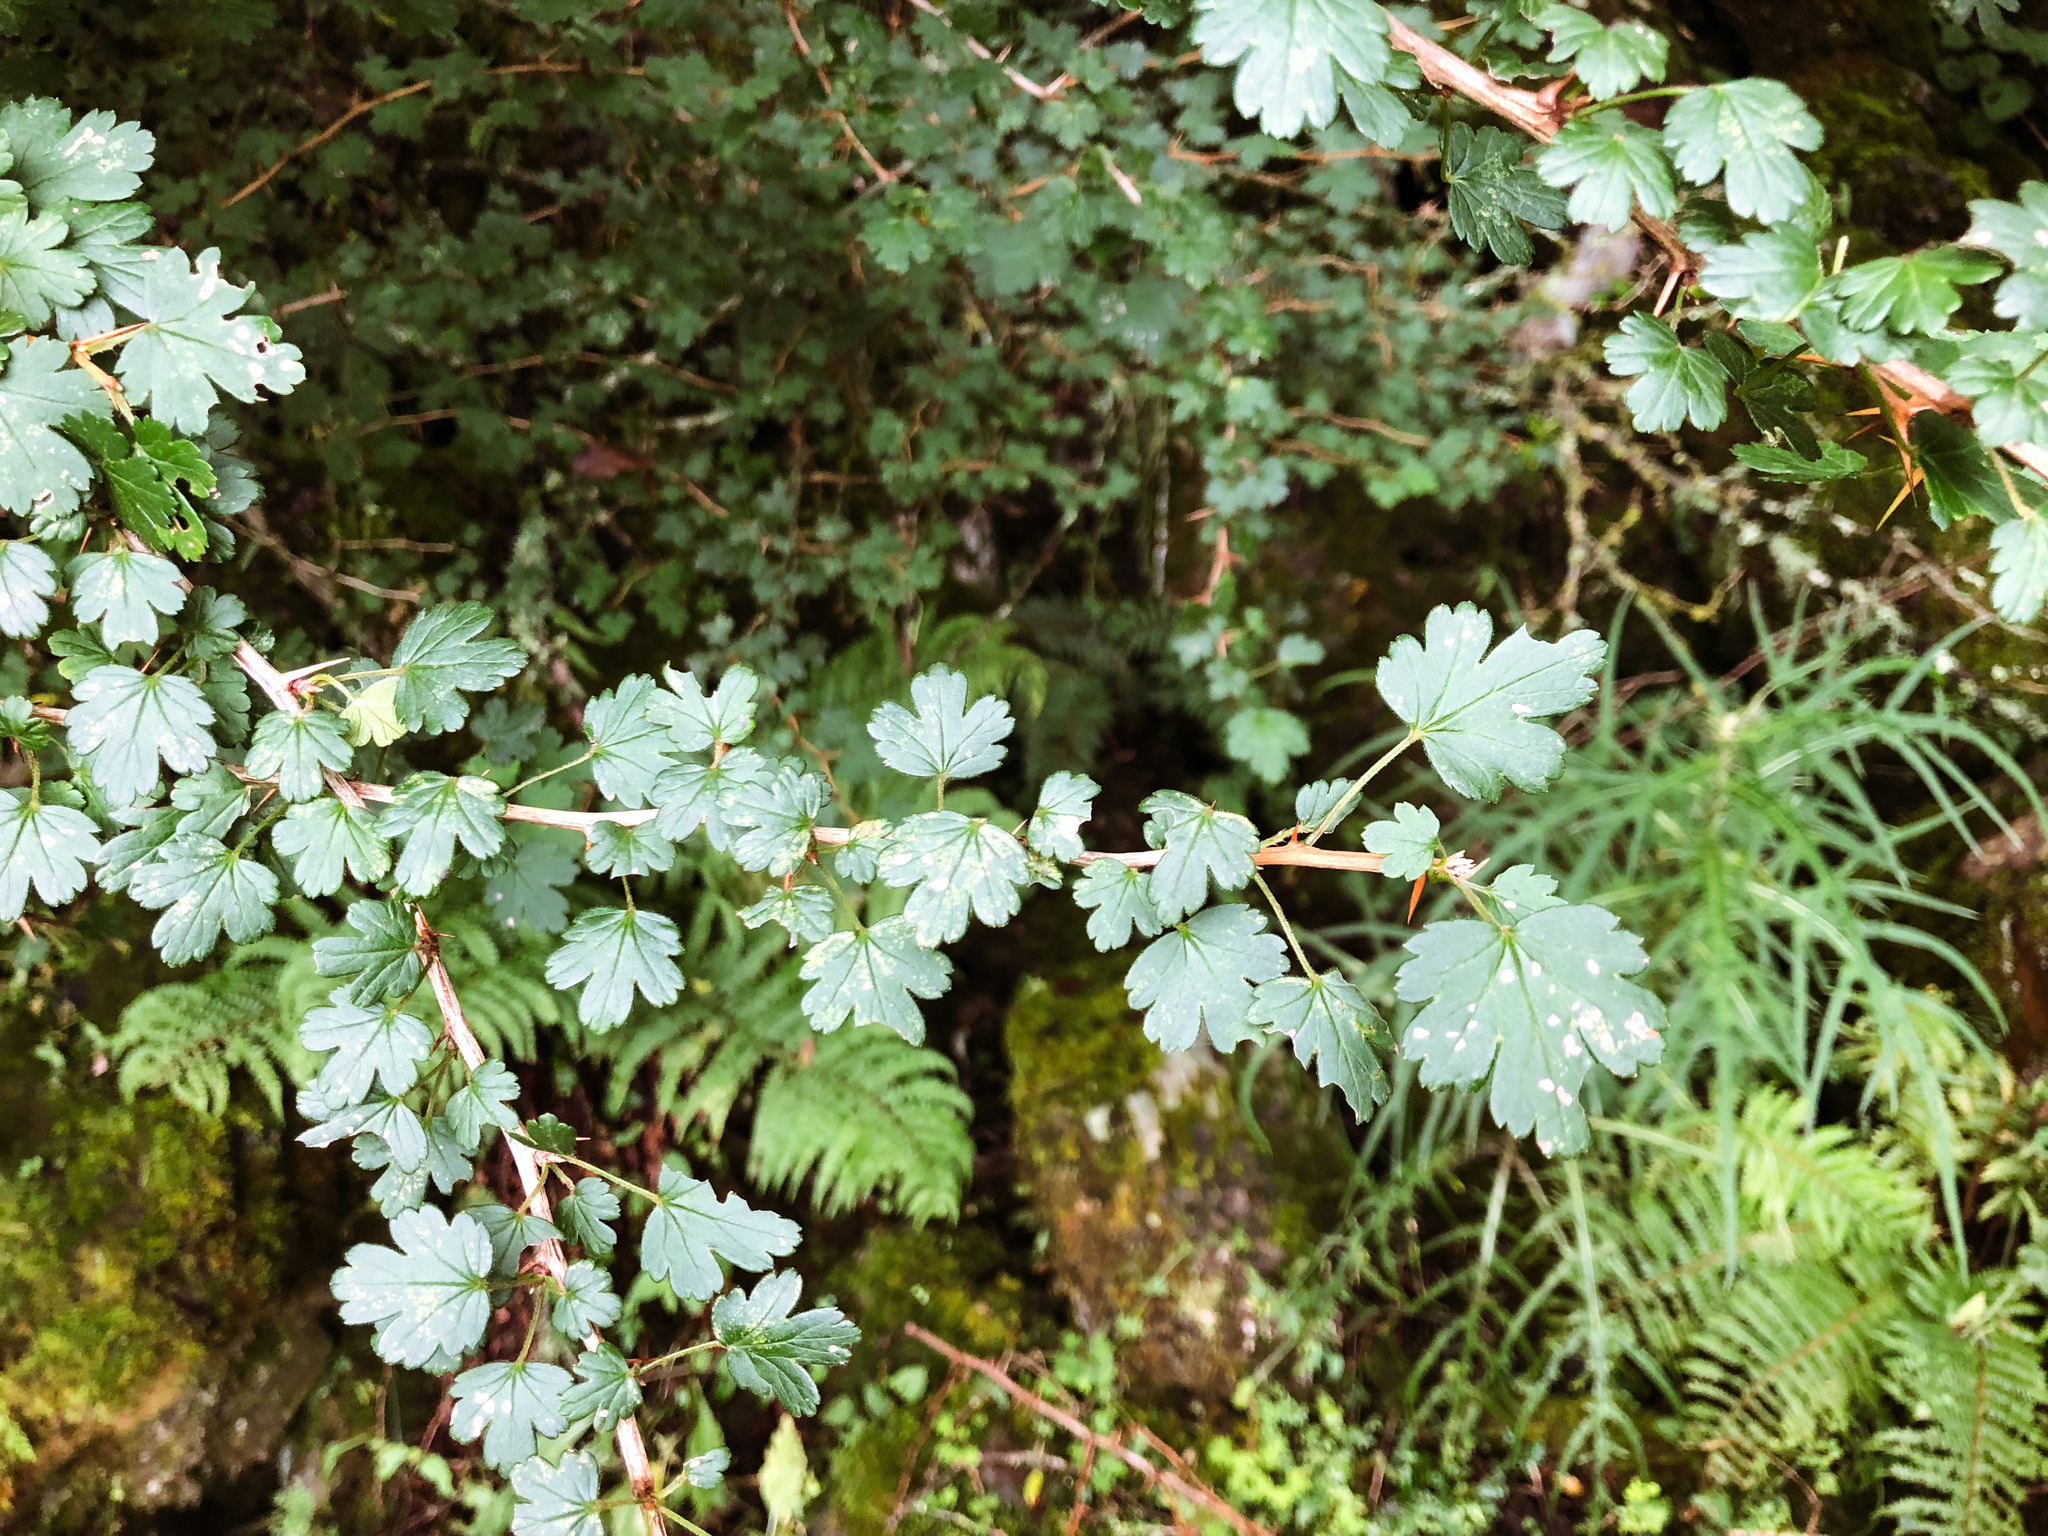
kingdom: Plantae
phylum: Tracheophyta
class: Magnoliopsida
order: Saxifragales
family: Grossulariaceae
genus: Ribes
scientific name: Ribes formosanum
